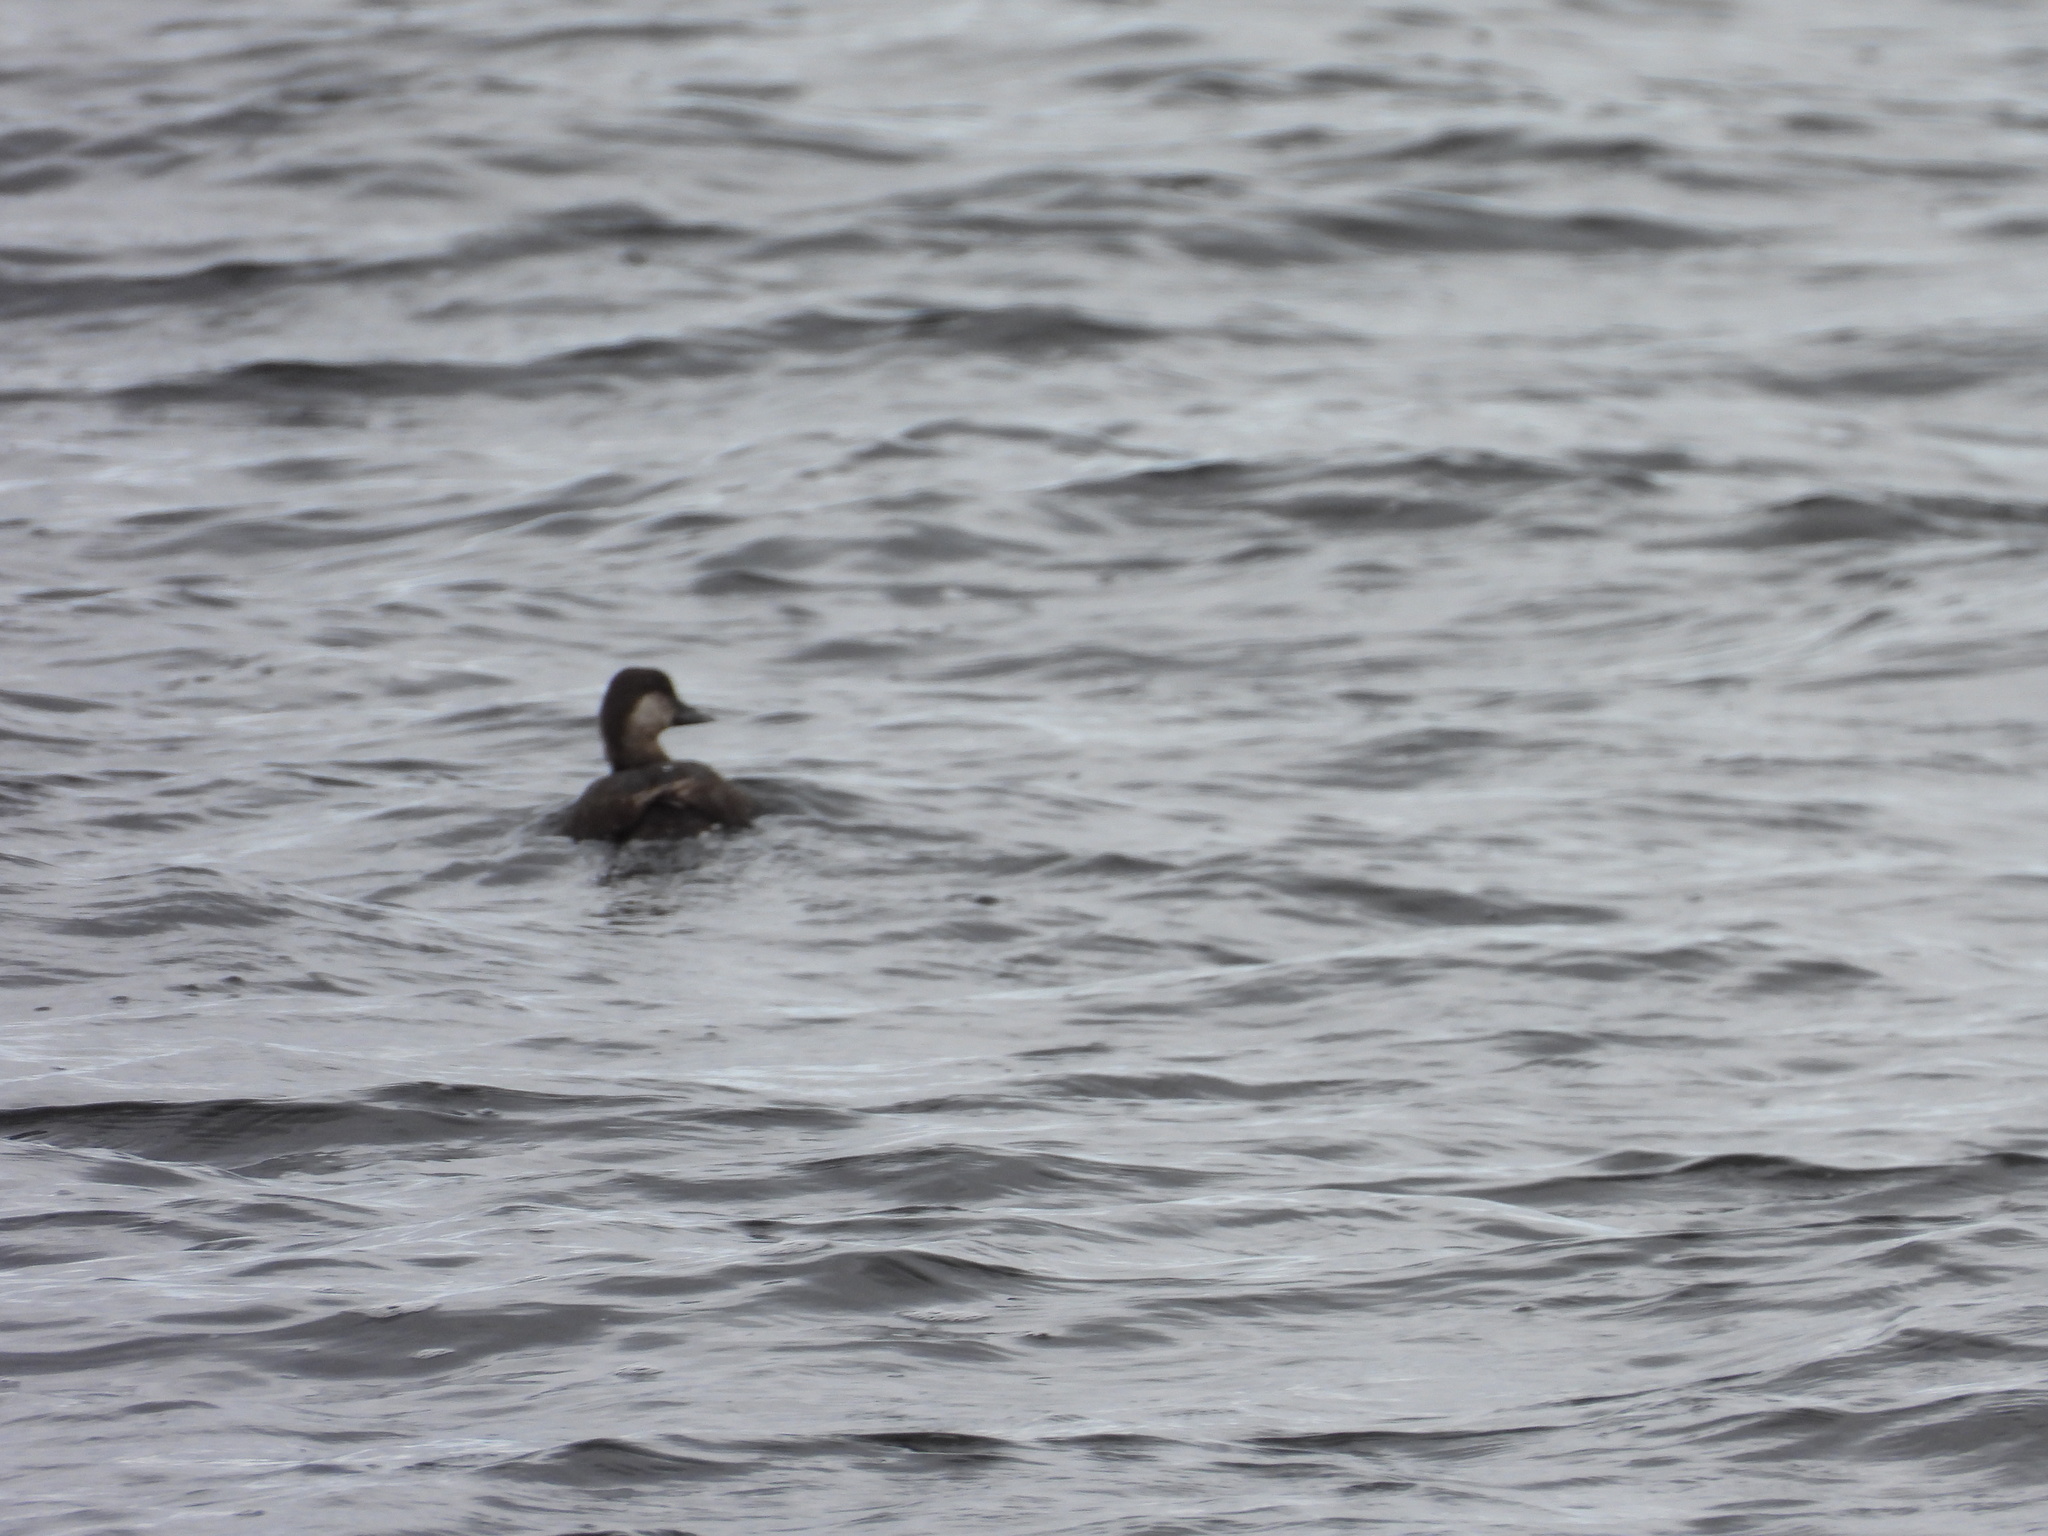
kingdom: Animalia
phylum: Chordata
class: Aves
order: Anseriformes
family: Anatidae
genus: Melanitta
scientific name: Melanitta americana
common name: Black scoter
